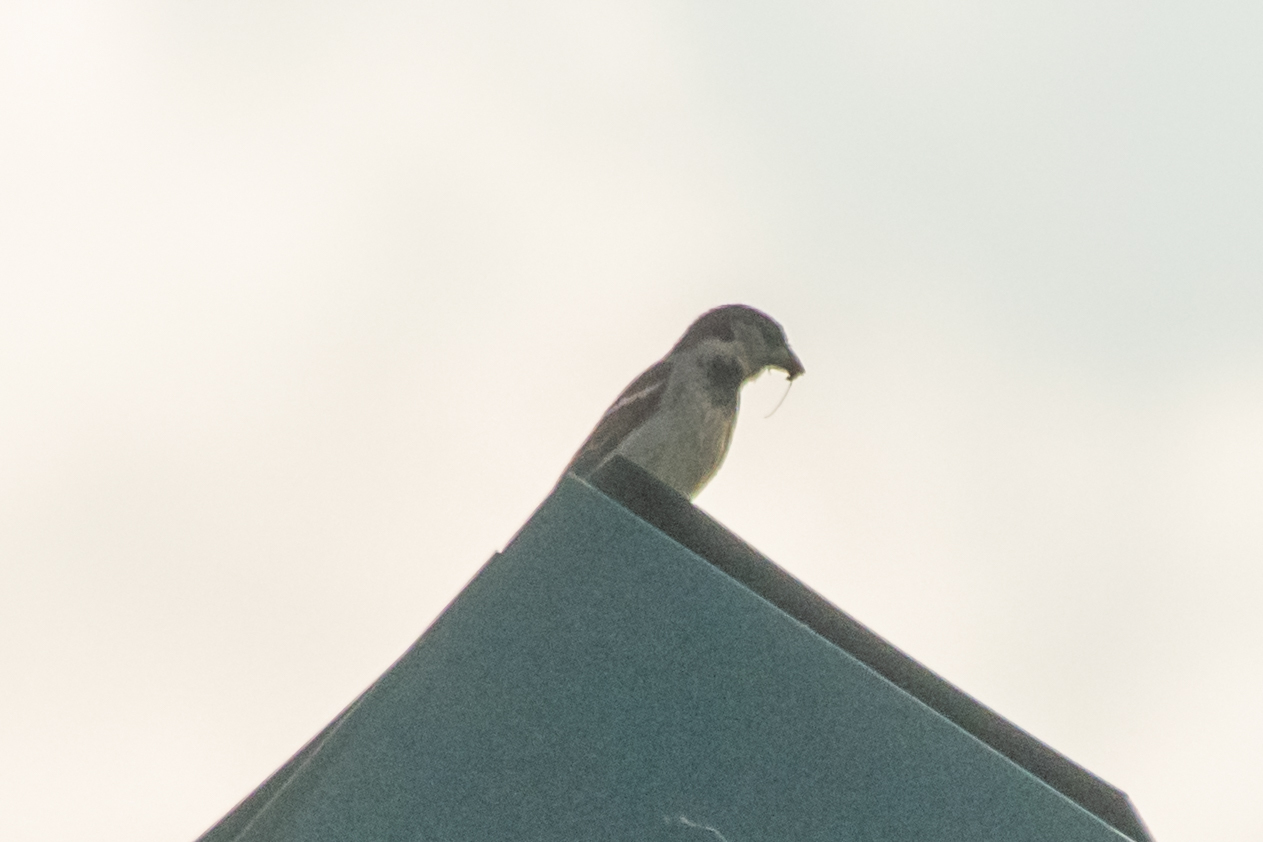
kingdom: Animalia
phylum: Chordata
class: Aves
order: Passeriformes
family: Passeridae
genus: Passer
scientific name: Passer domesticus
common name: House sparrow
